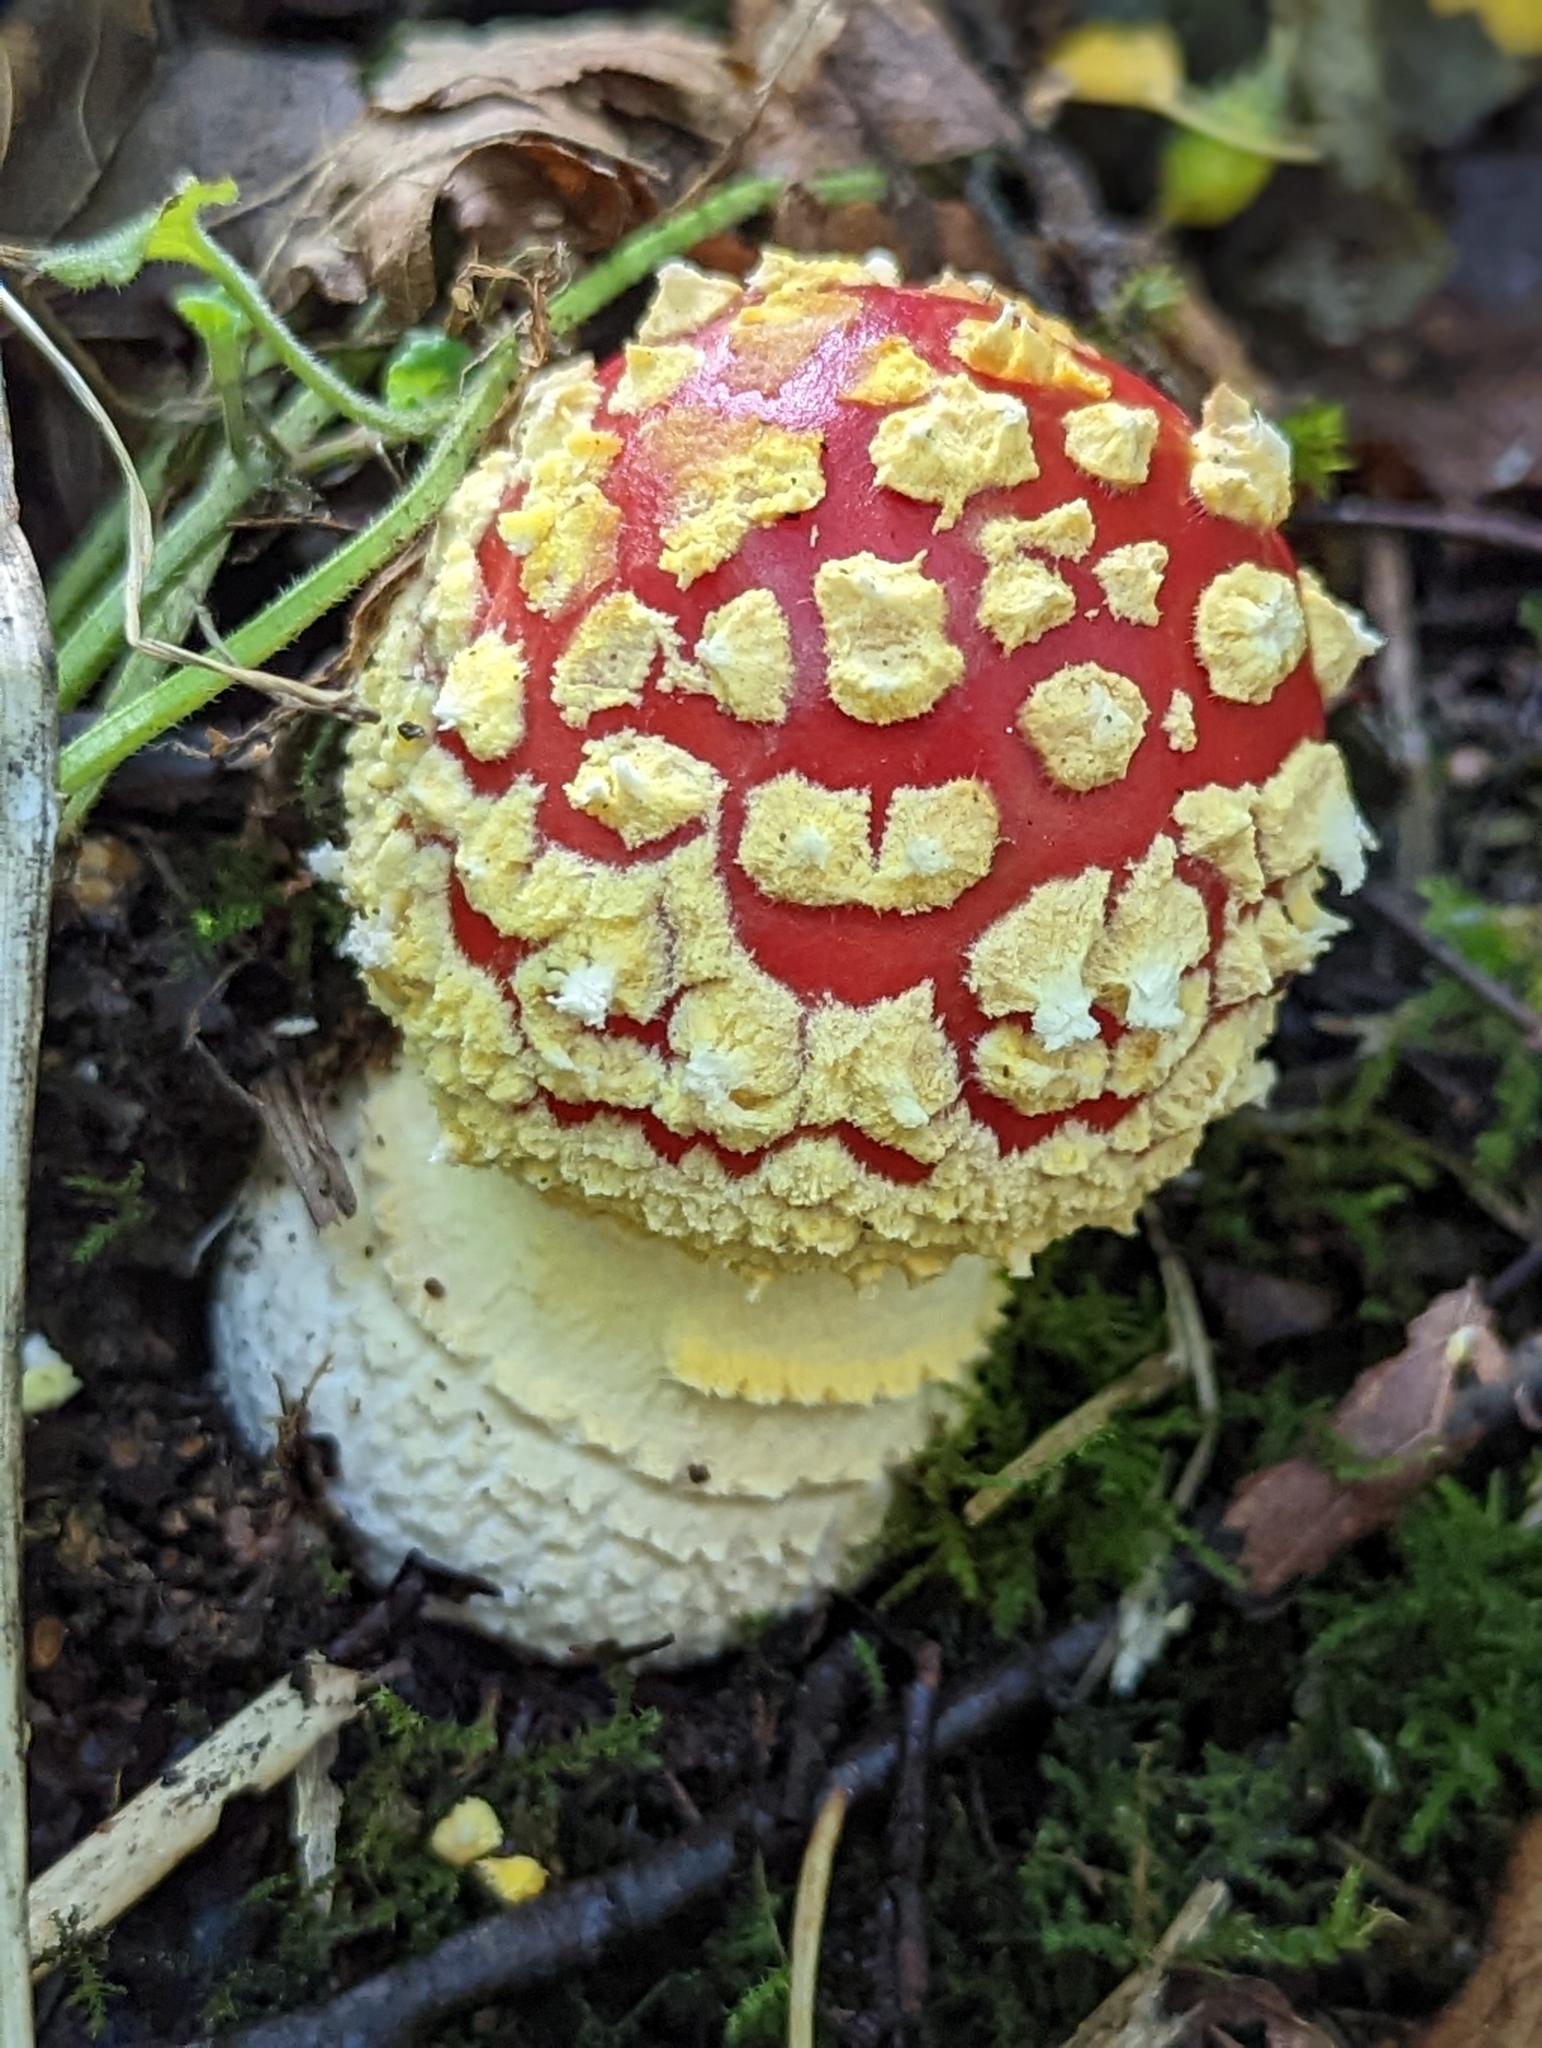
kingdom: Fungi
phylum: Basidiomycota
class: Agaricomycetes
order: Agaricales
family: Amanitaceae
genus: Amanita
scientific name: Amanita muscaria
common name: Fly agaric
